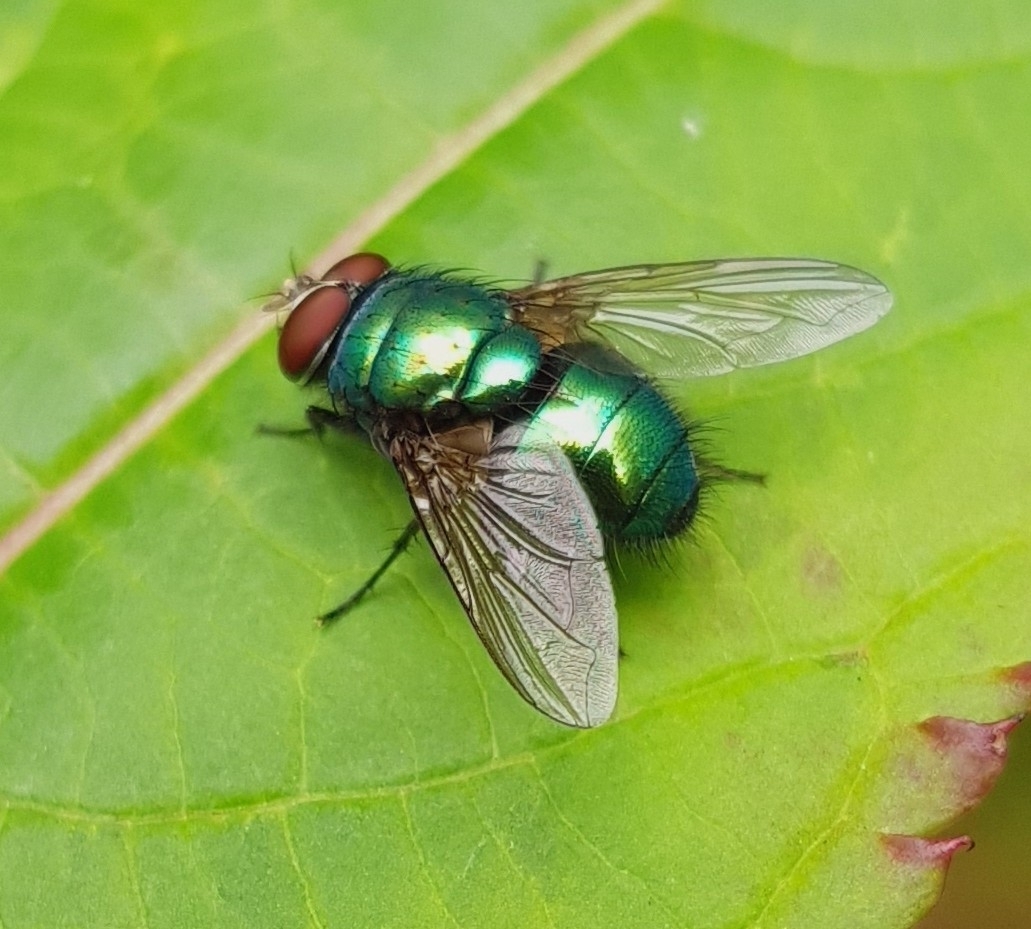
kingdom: Animalia
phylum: Arthropoda
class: Insecta
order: Diptera
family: Calliphoridae
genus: Lucilia
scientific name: Lucilia
